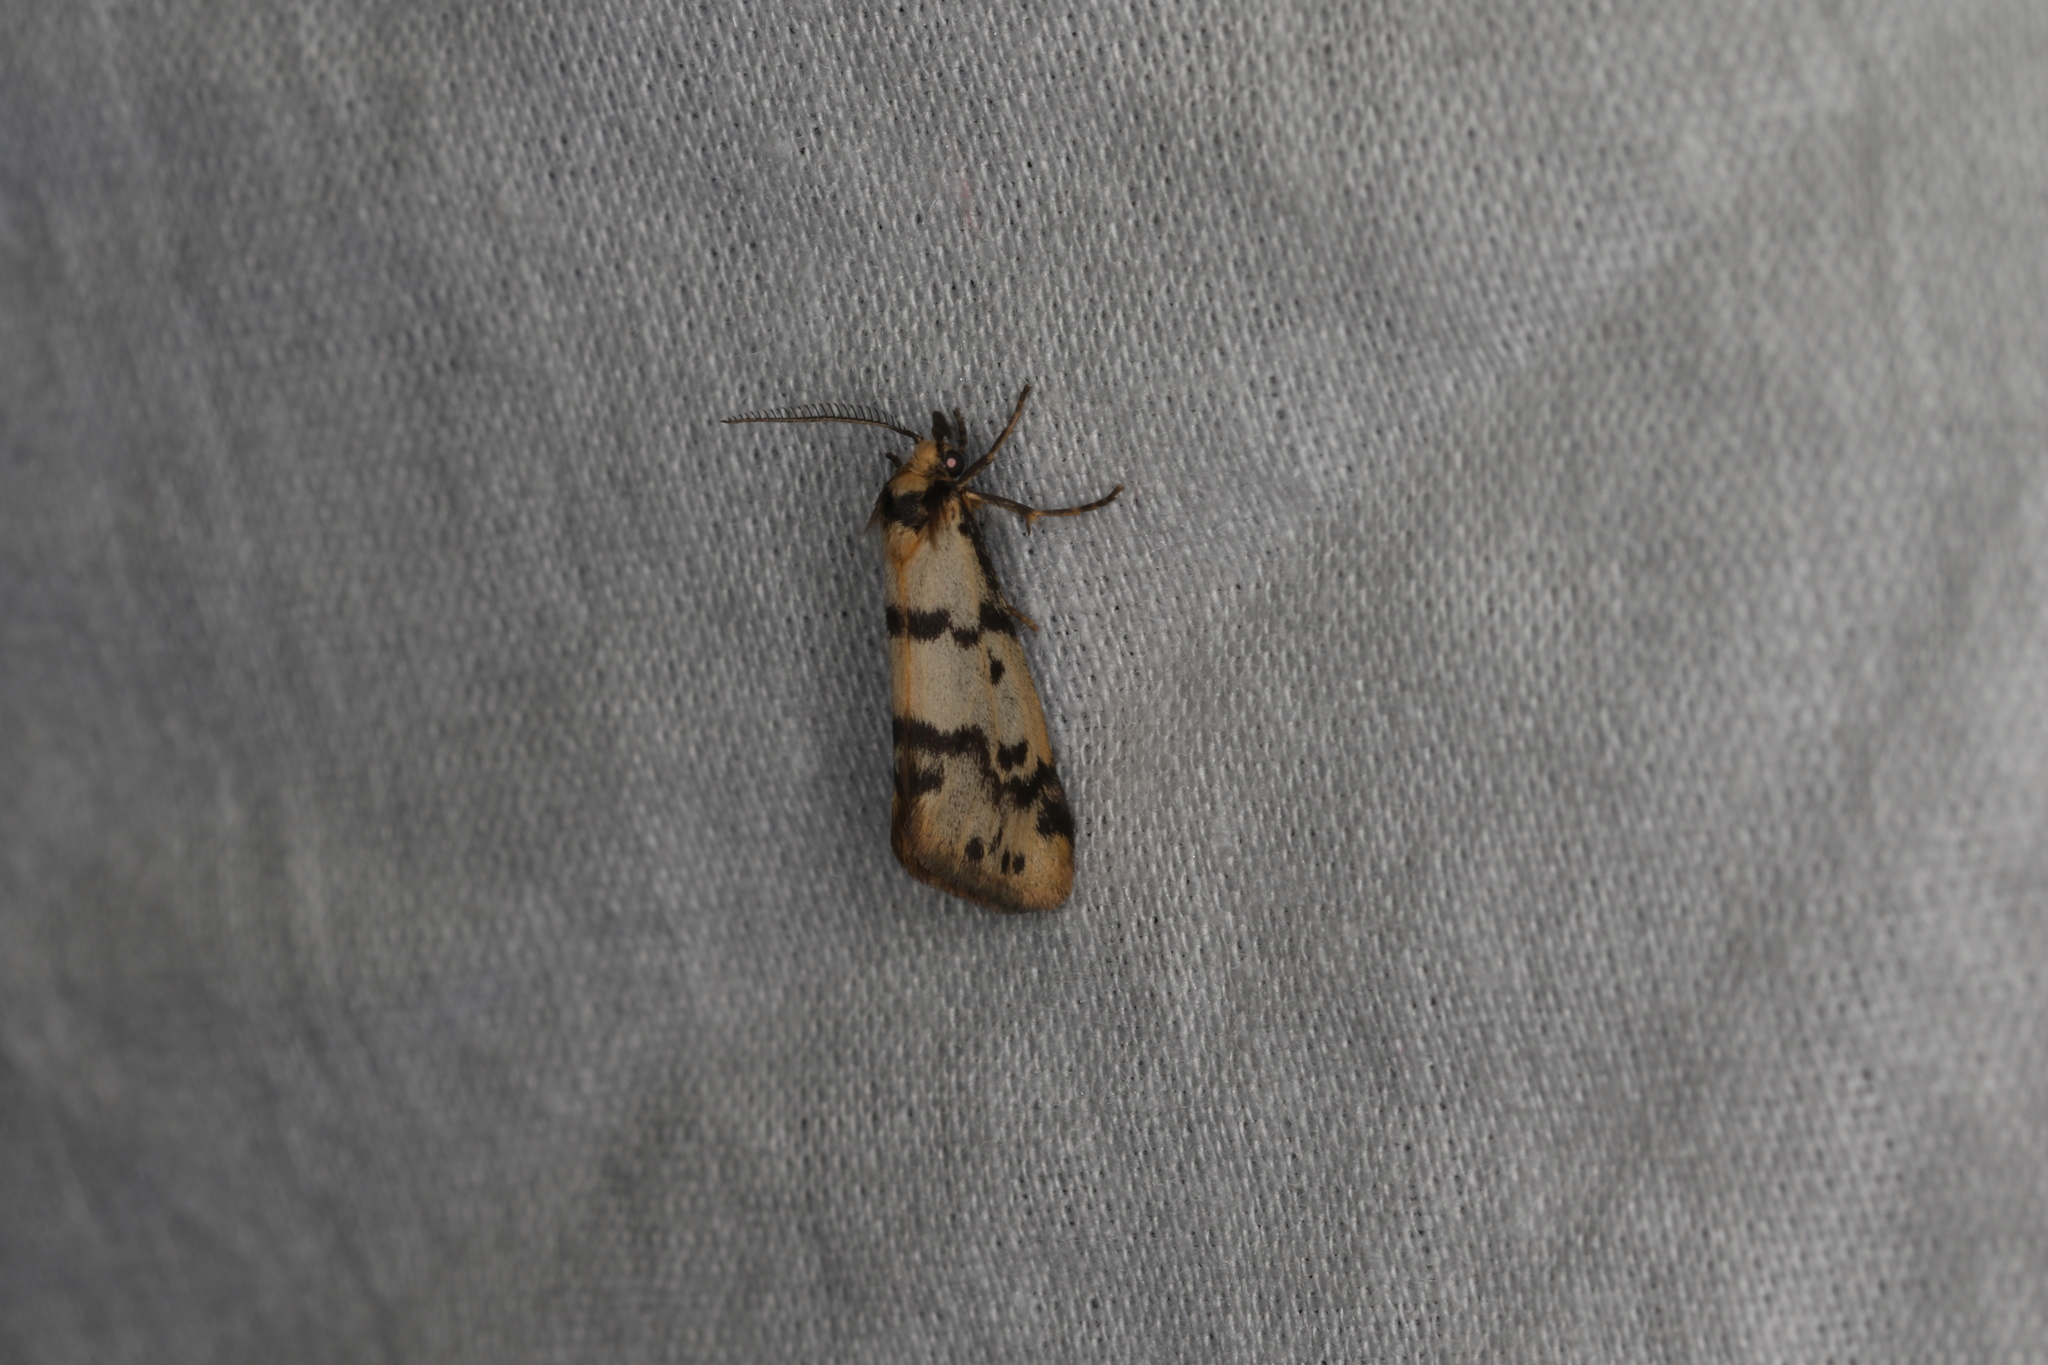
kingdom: Animalia
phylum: Arthropoda
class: Insecta
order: Lepidoptera
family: Erebidae
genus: Anestia
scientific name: Anestia
